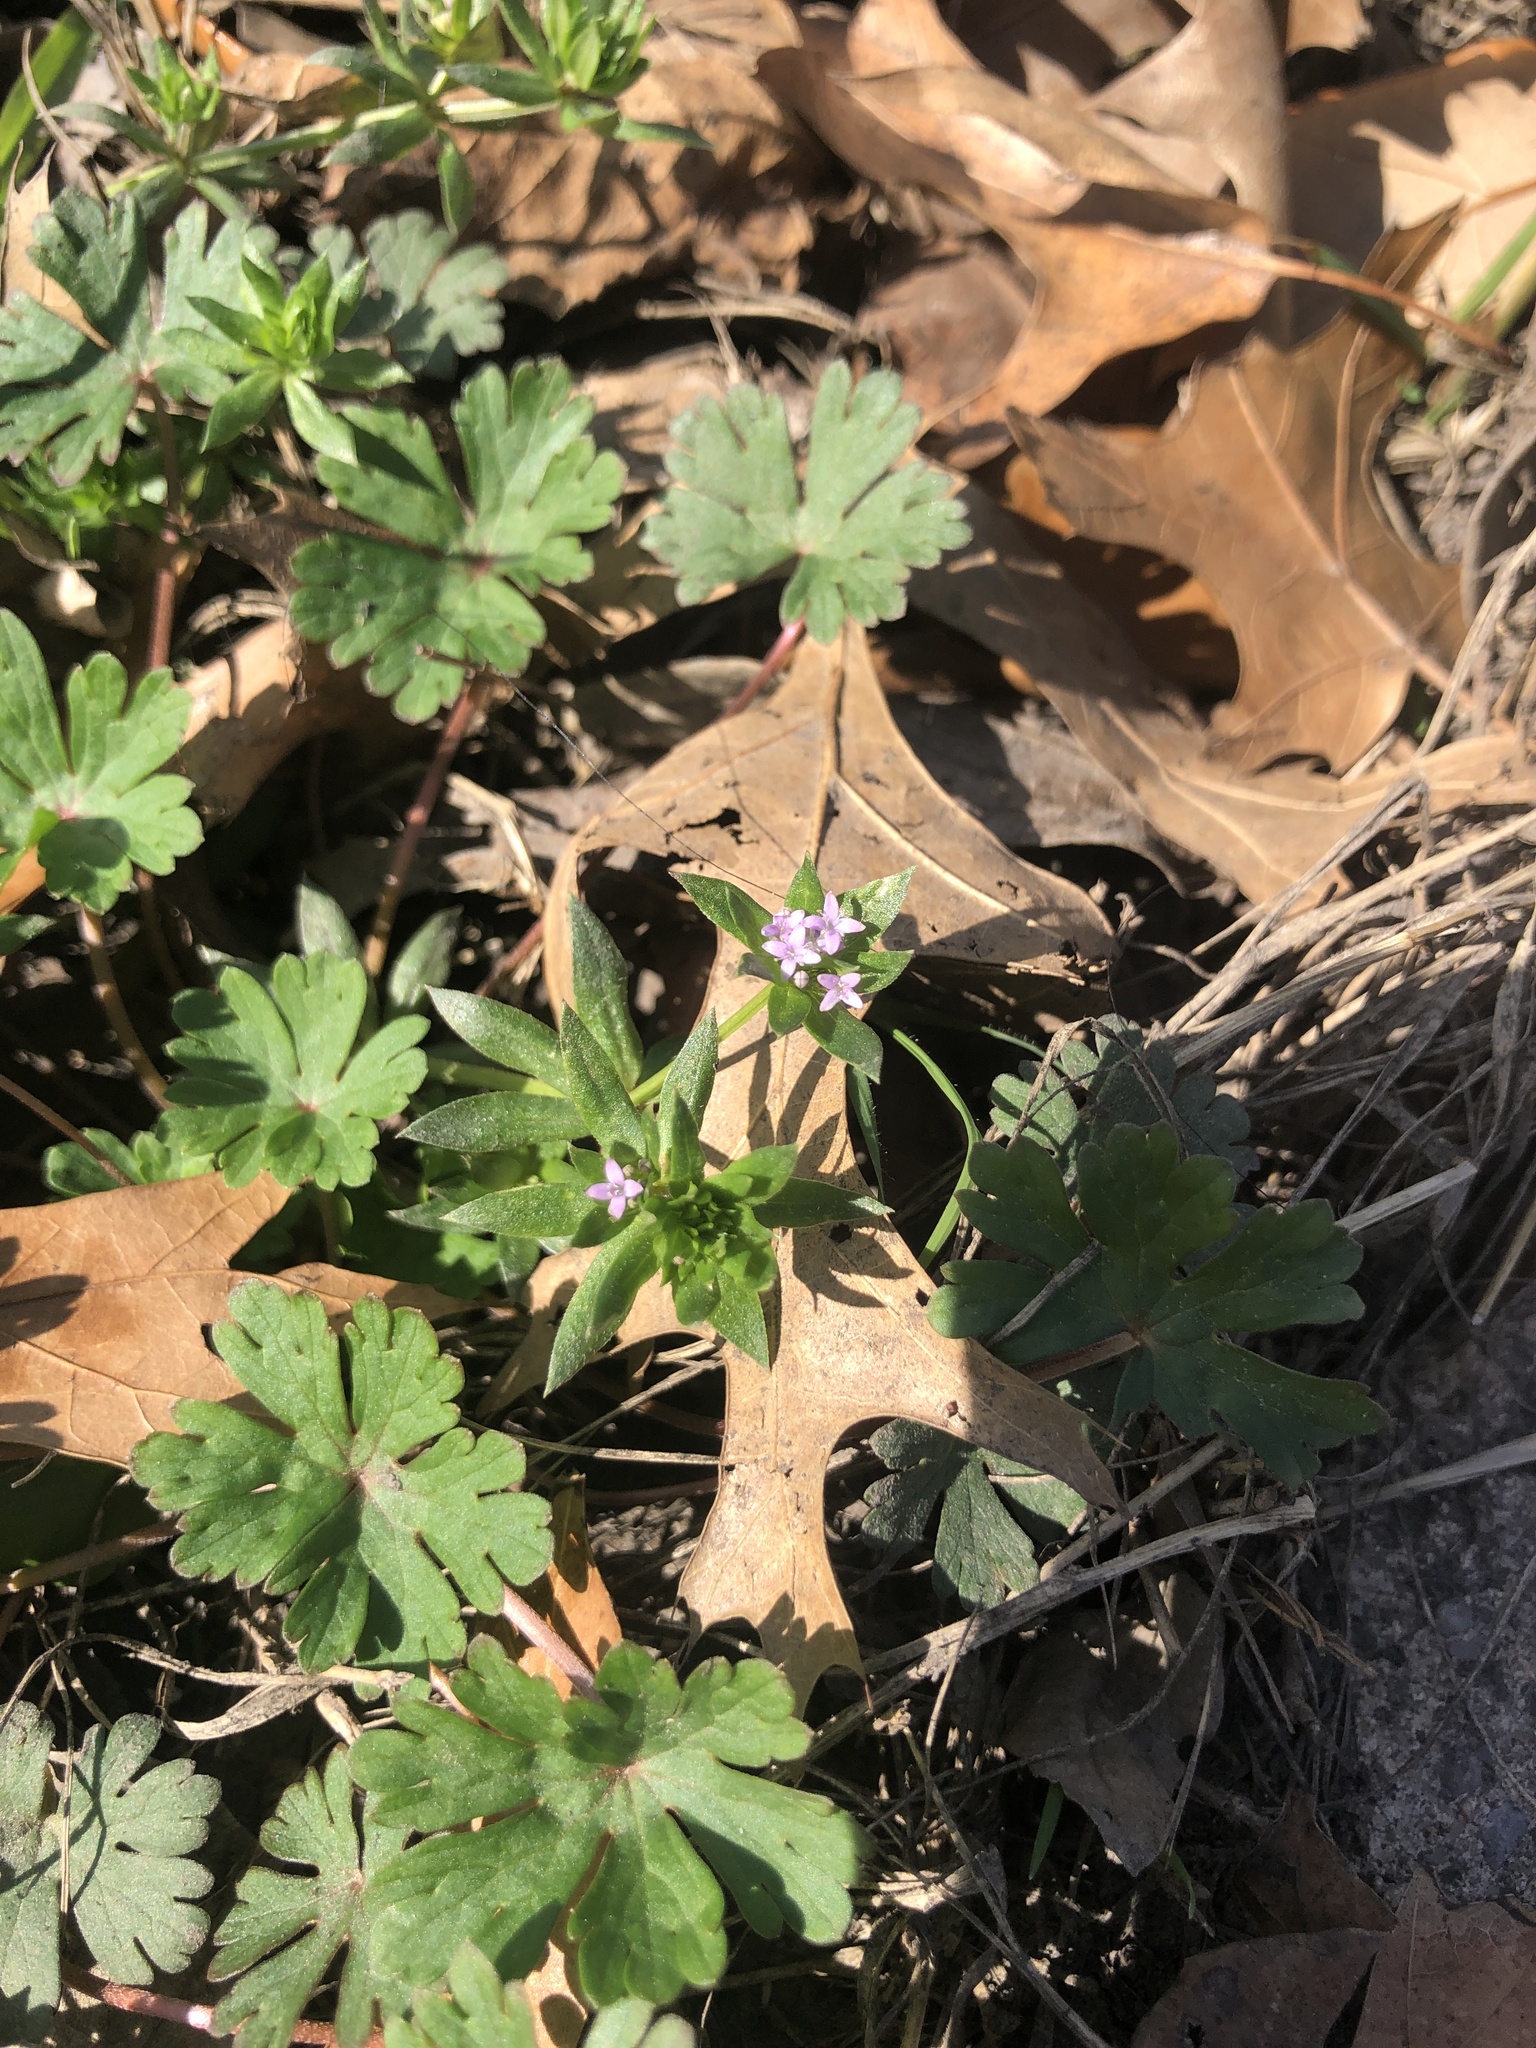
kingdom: Plantae
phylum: Tracheophyta
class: Magnoliopsida
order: Gentianales
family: Rubiaceae
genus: Sherardia
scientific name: Sherardia arvensis
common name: Field madder
